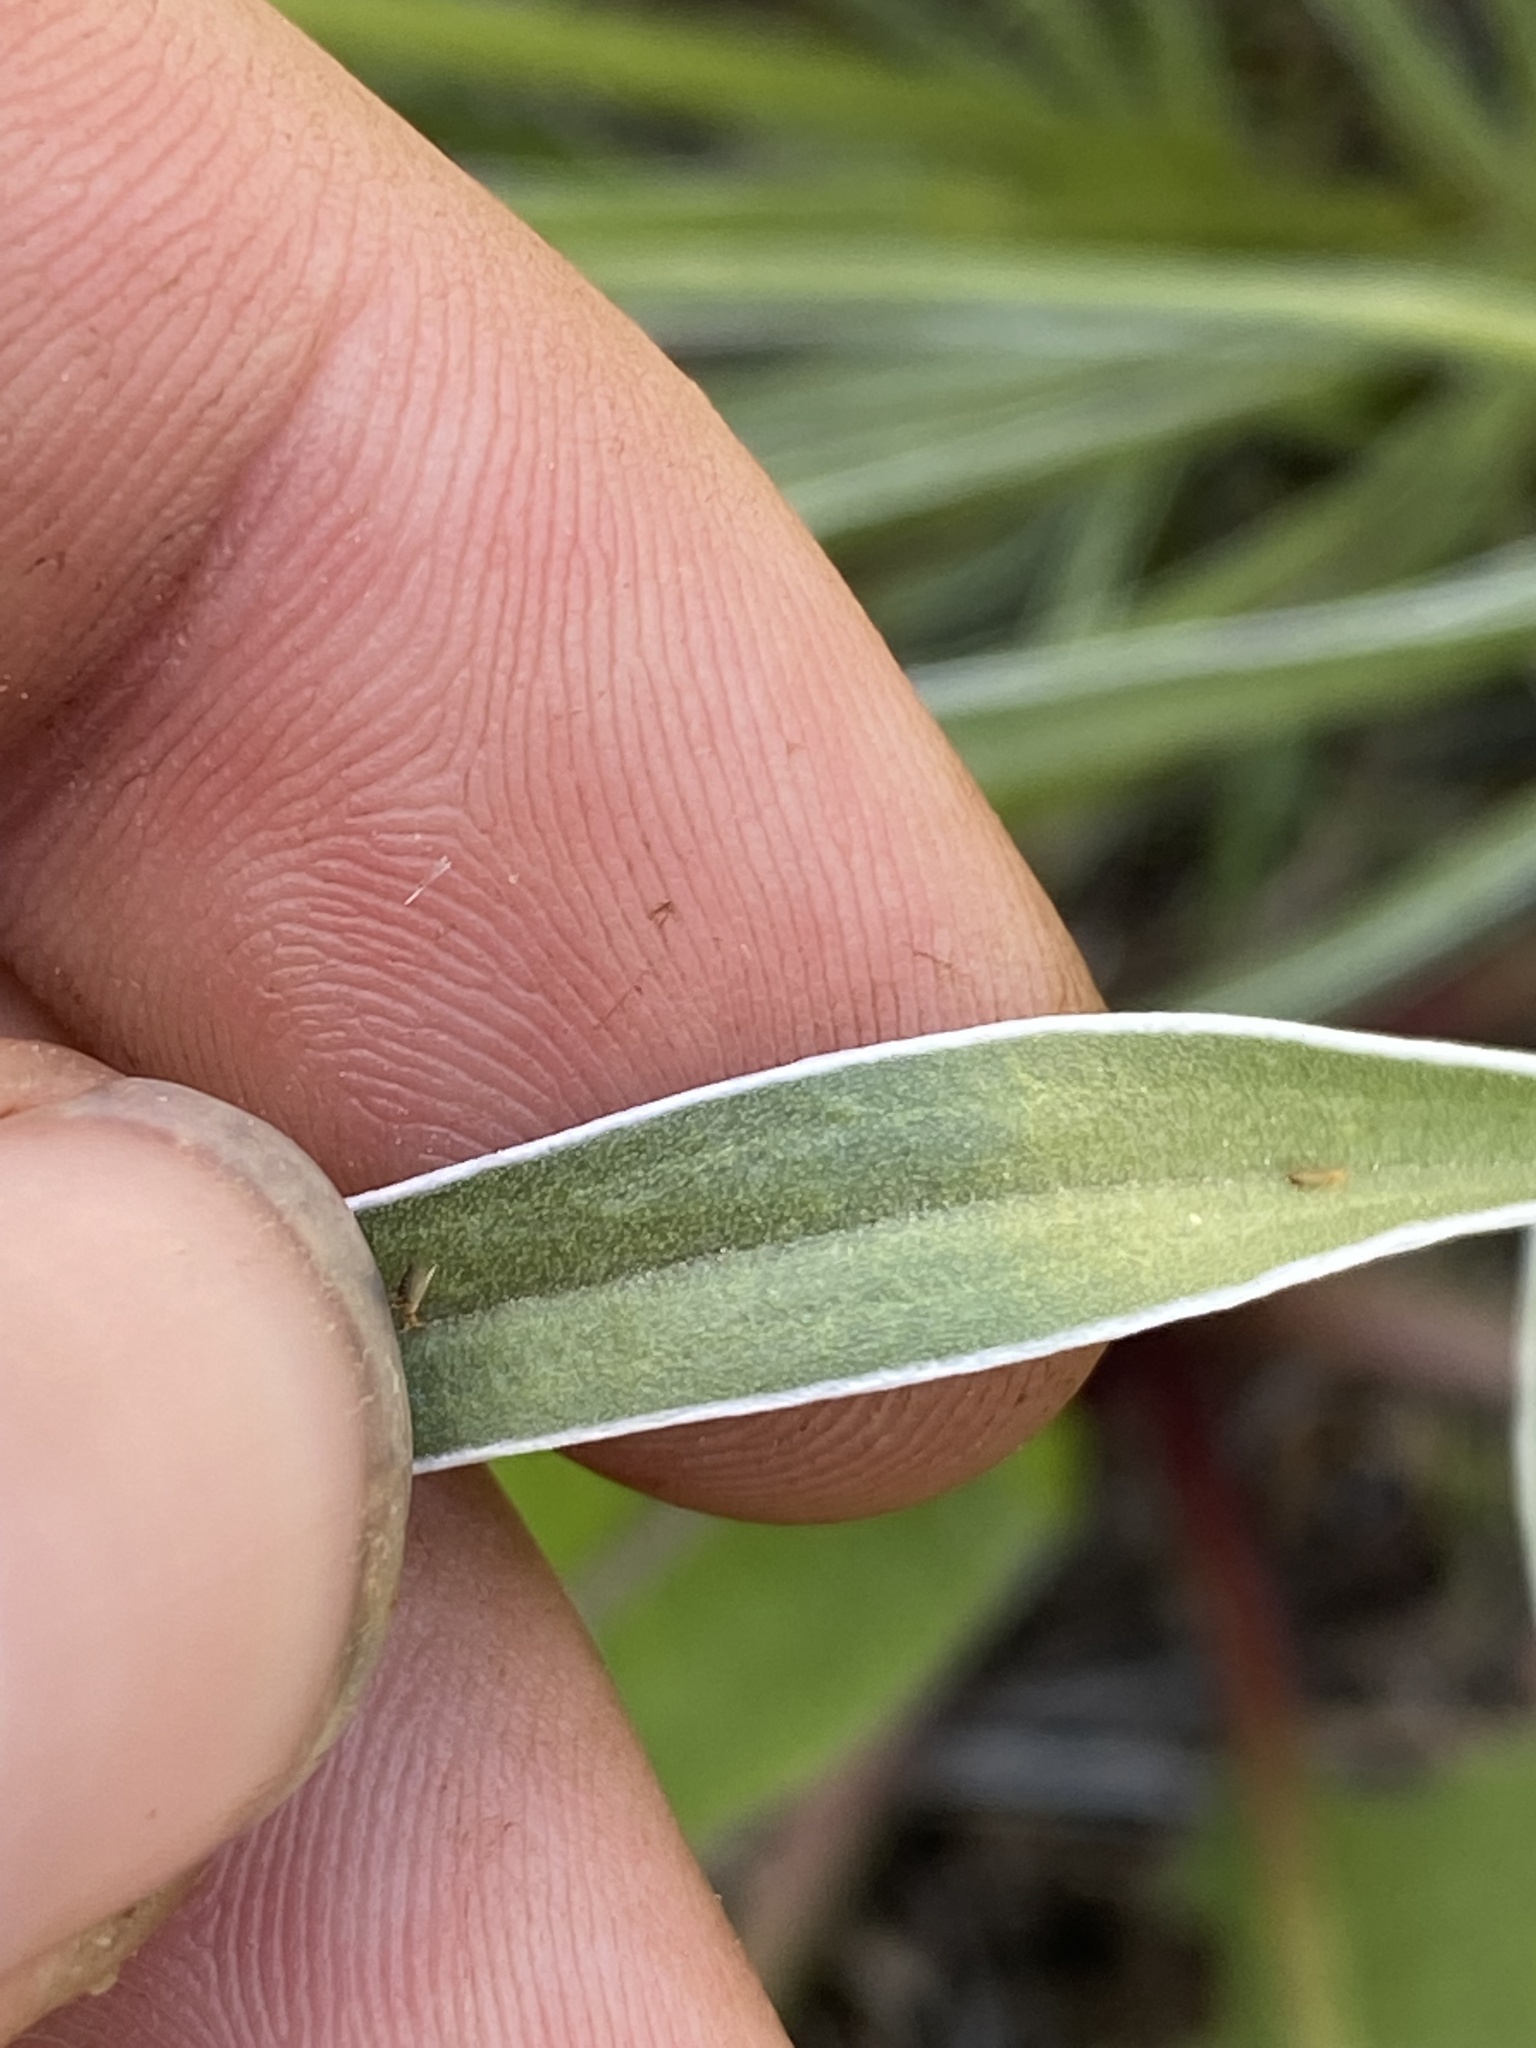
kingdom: Plantae
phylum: Tracheophyta
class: Magnoliopsida
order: Gentianales
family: Gentianaceae
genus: Frasera
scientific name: Frasera albicaulis
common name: Cusick's frasera
